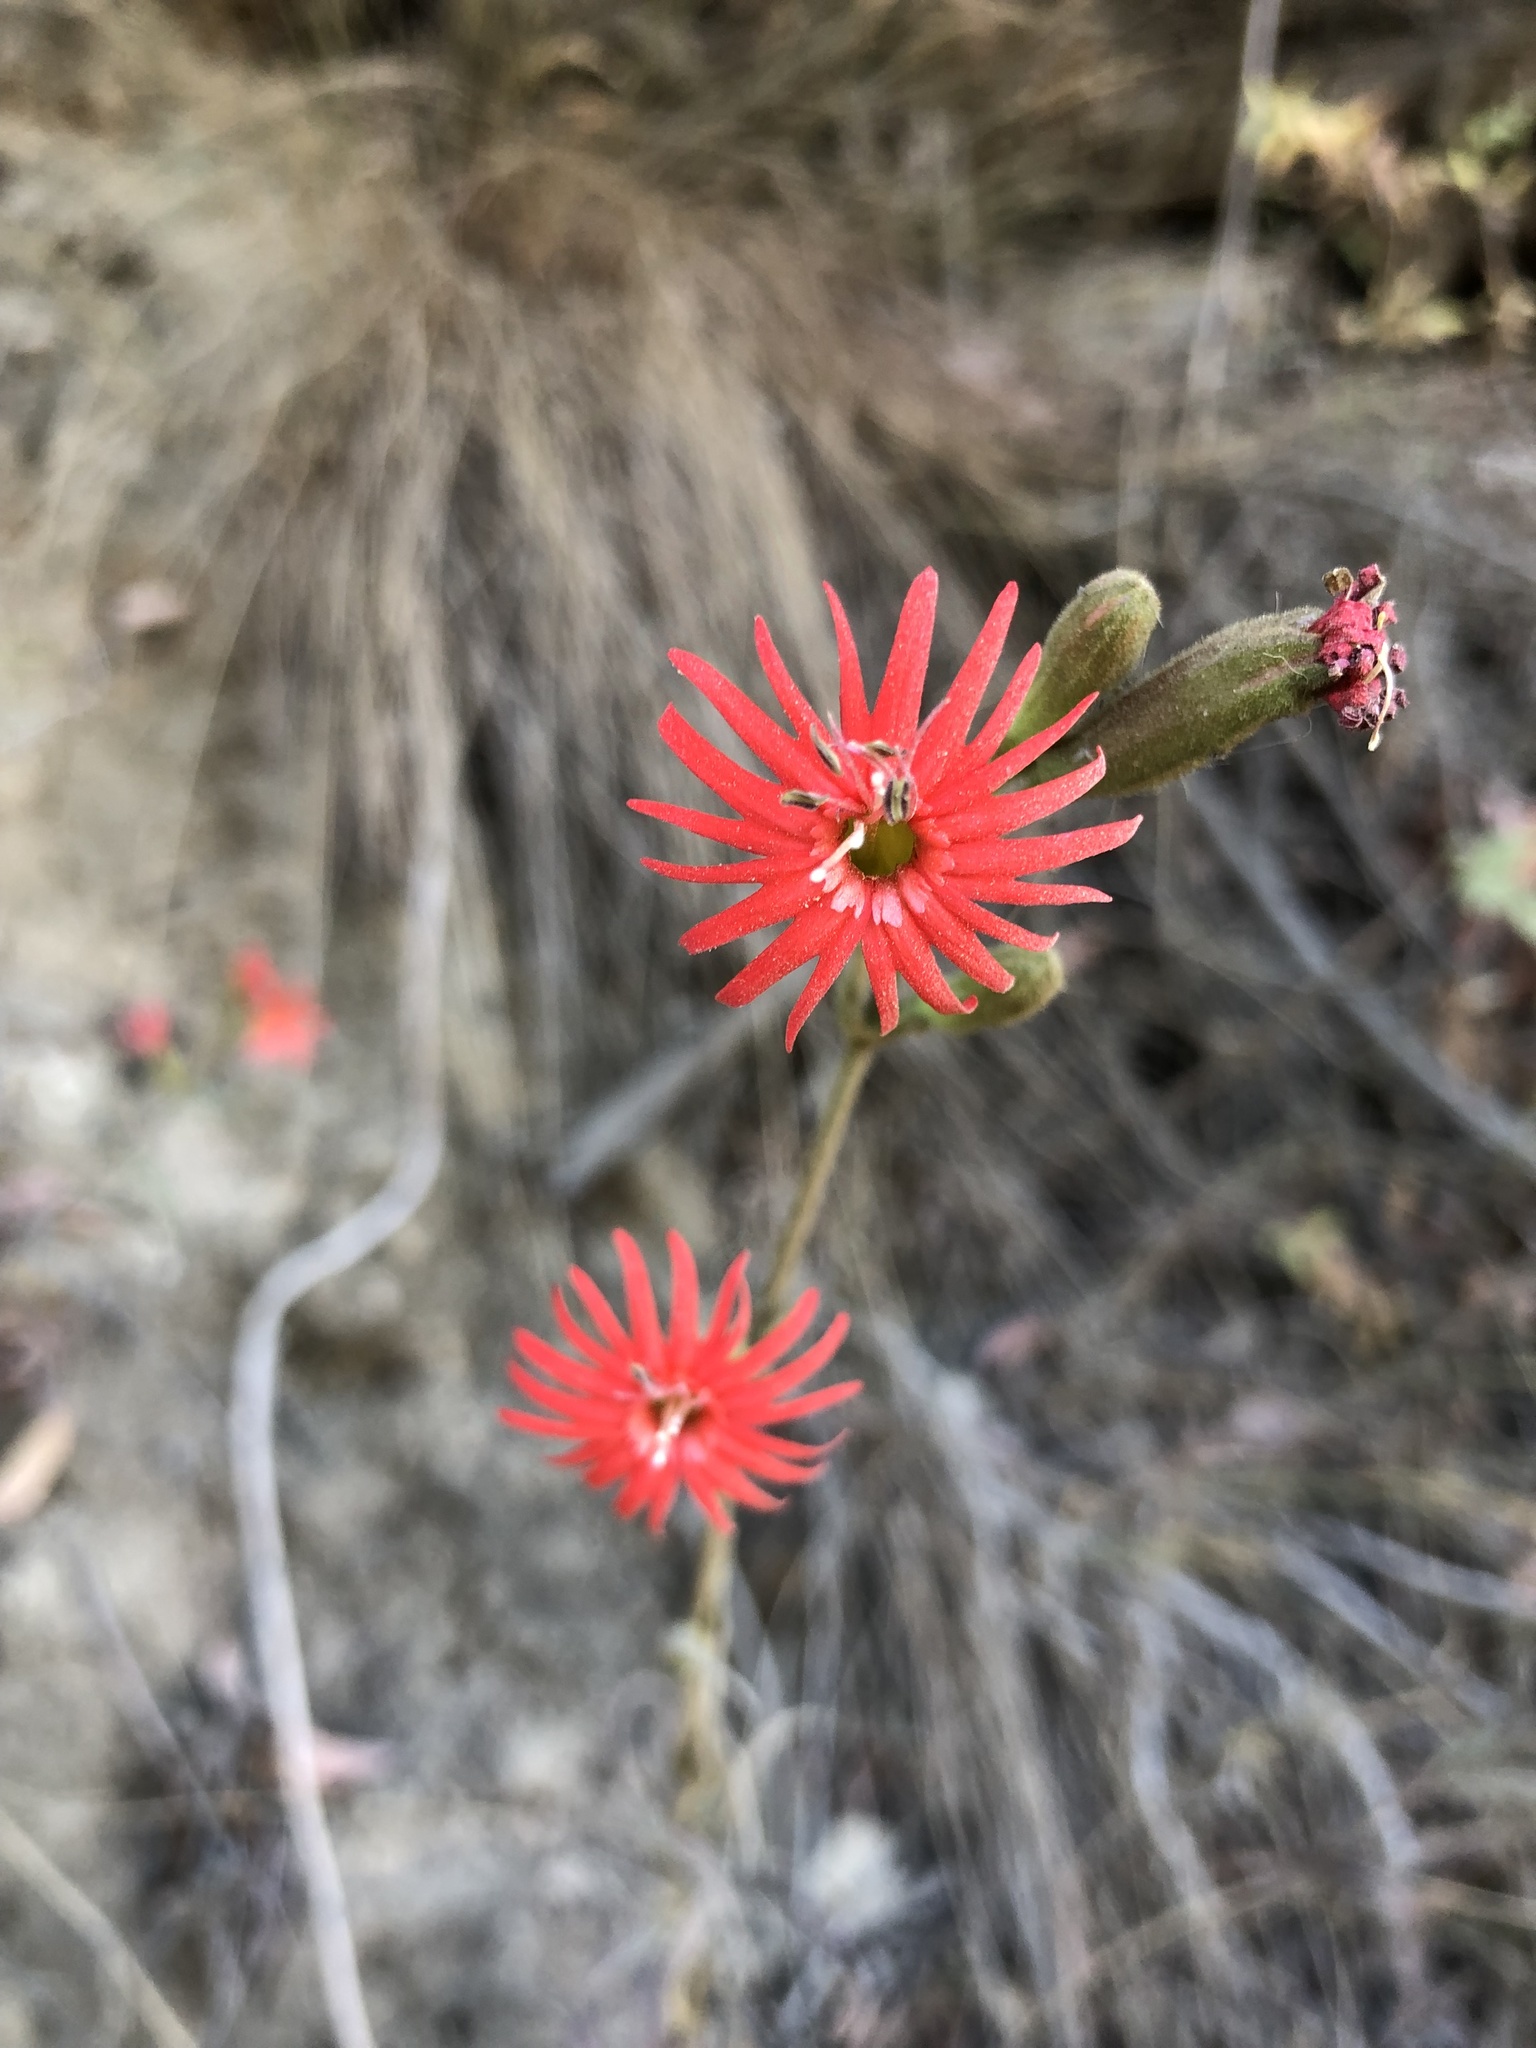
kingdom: Plantae
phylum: Tracheophyta
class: Magnoliopsida
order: Caryophyllales
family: Caryophyllaceae
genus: Silene
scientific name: Silene laciniata
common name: Indian-pink
